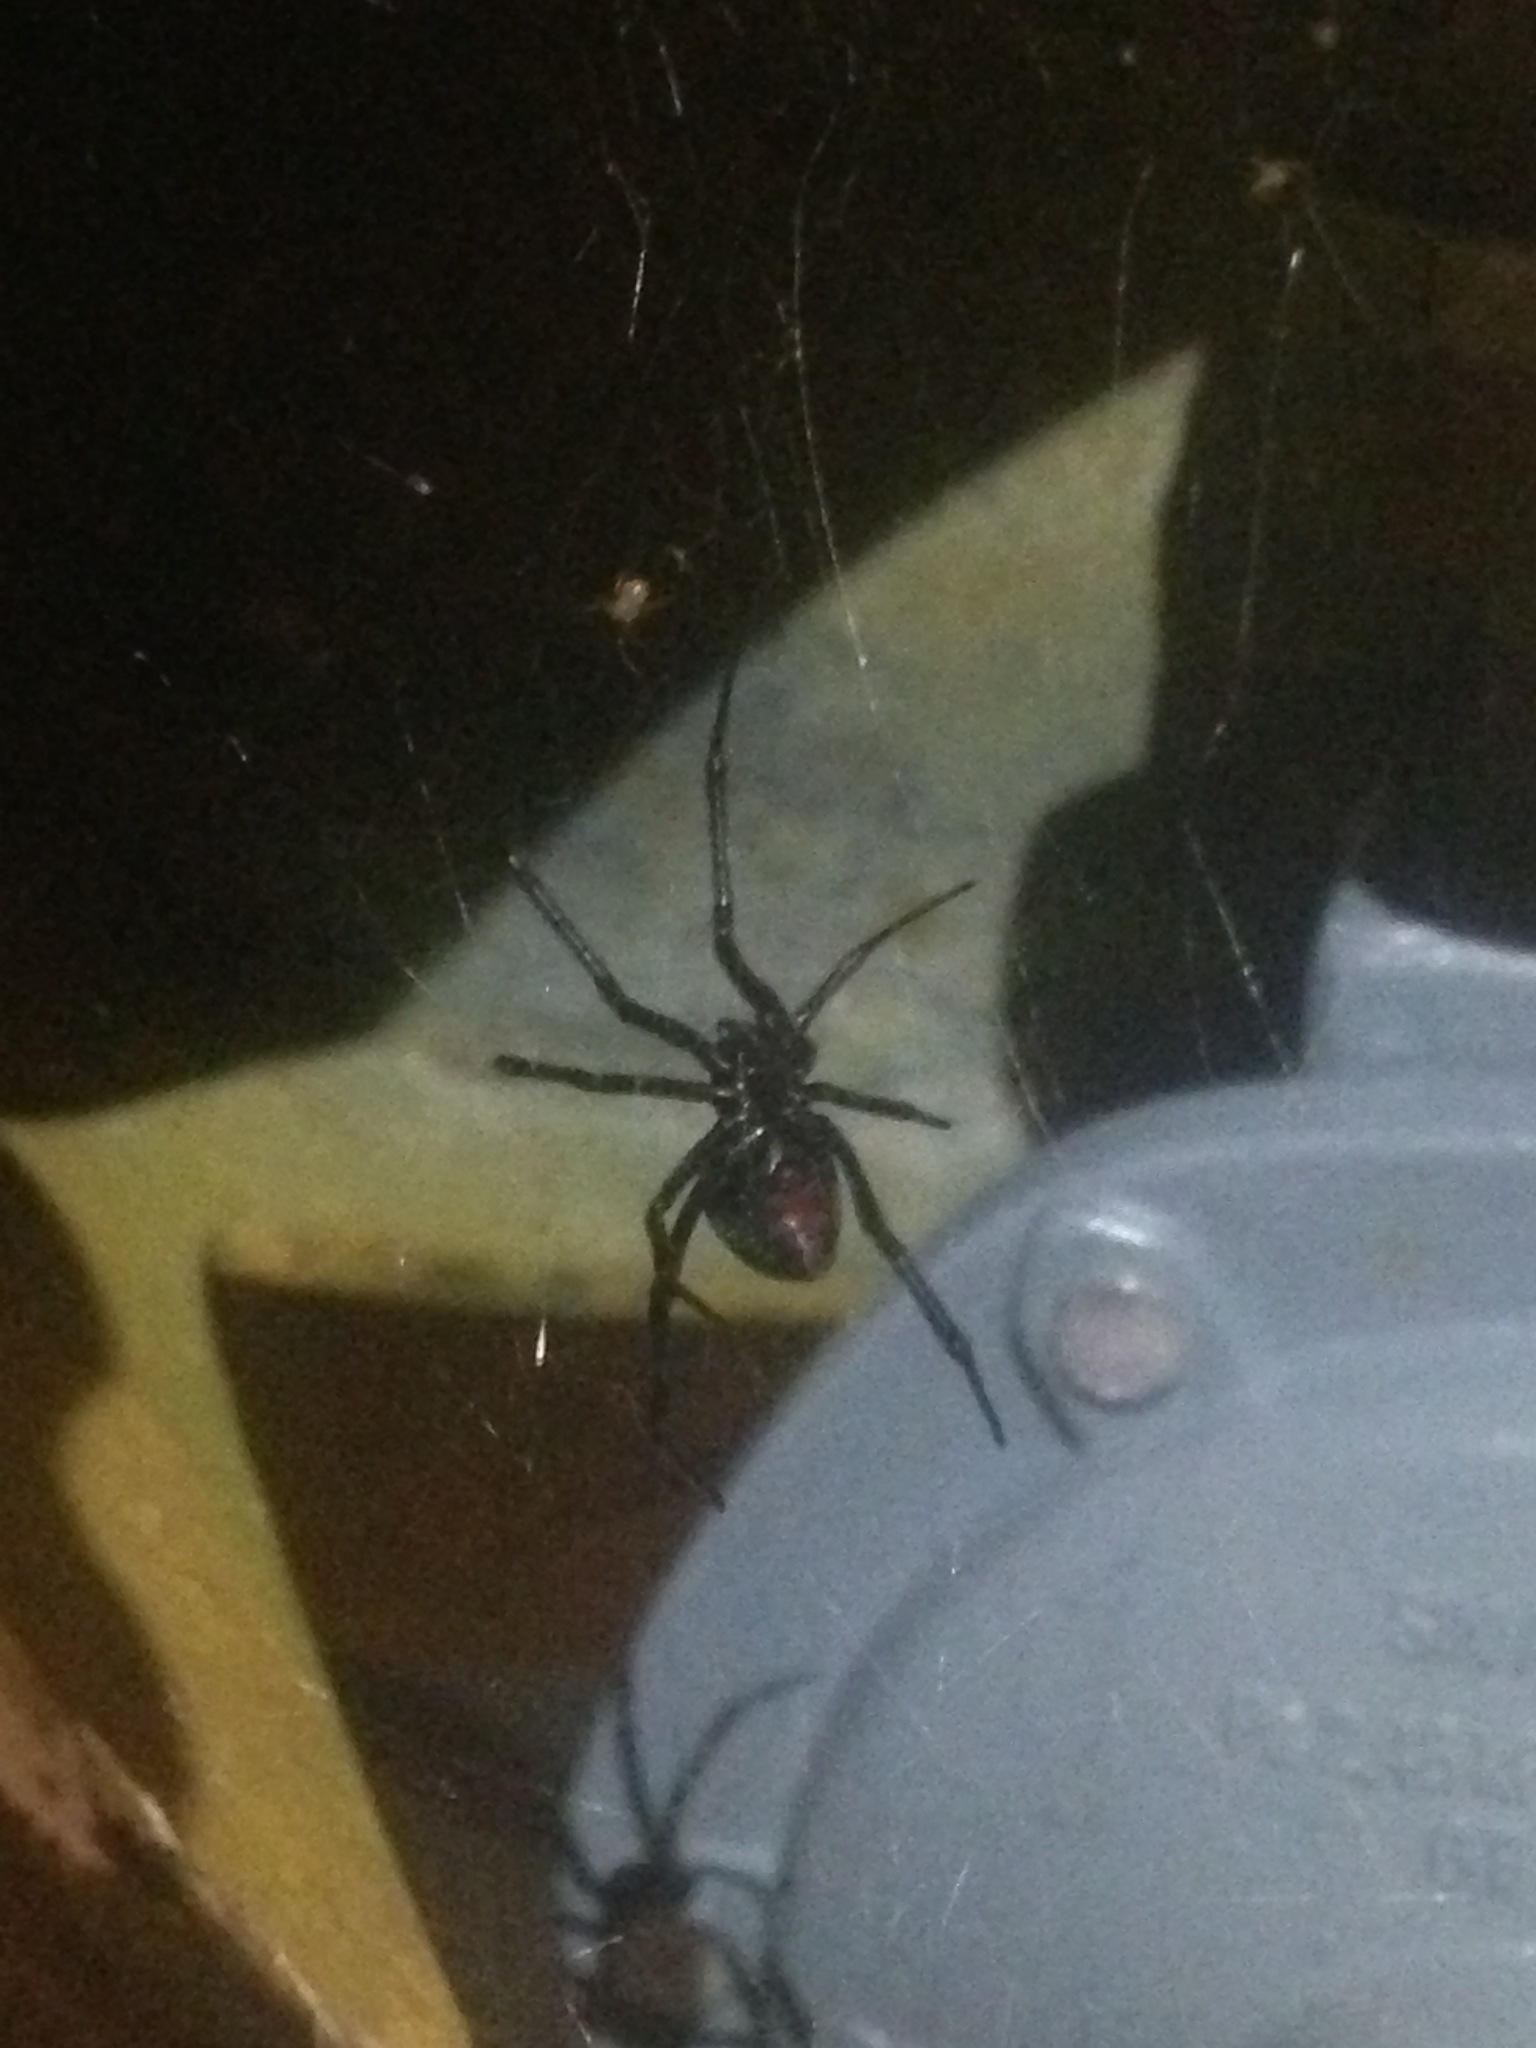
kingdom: Animalia
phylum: Arthropoda
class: Arachnida
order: Araneae
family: Theridiidae
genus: Latrodectus
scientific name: Latrodectus mactans
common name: Cobweb spiders
